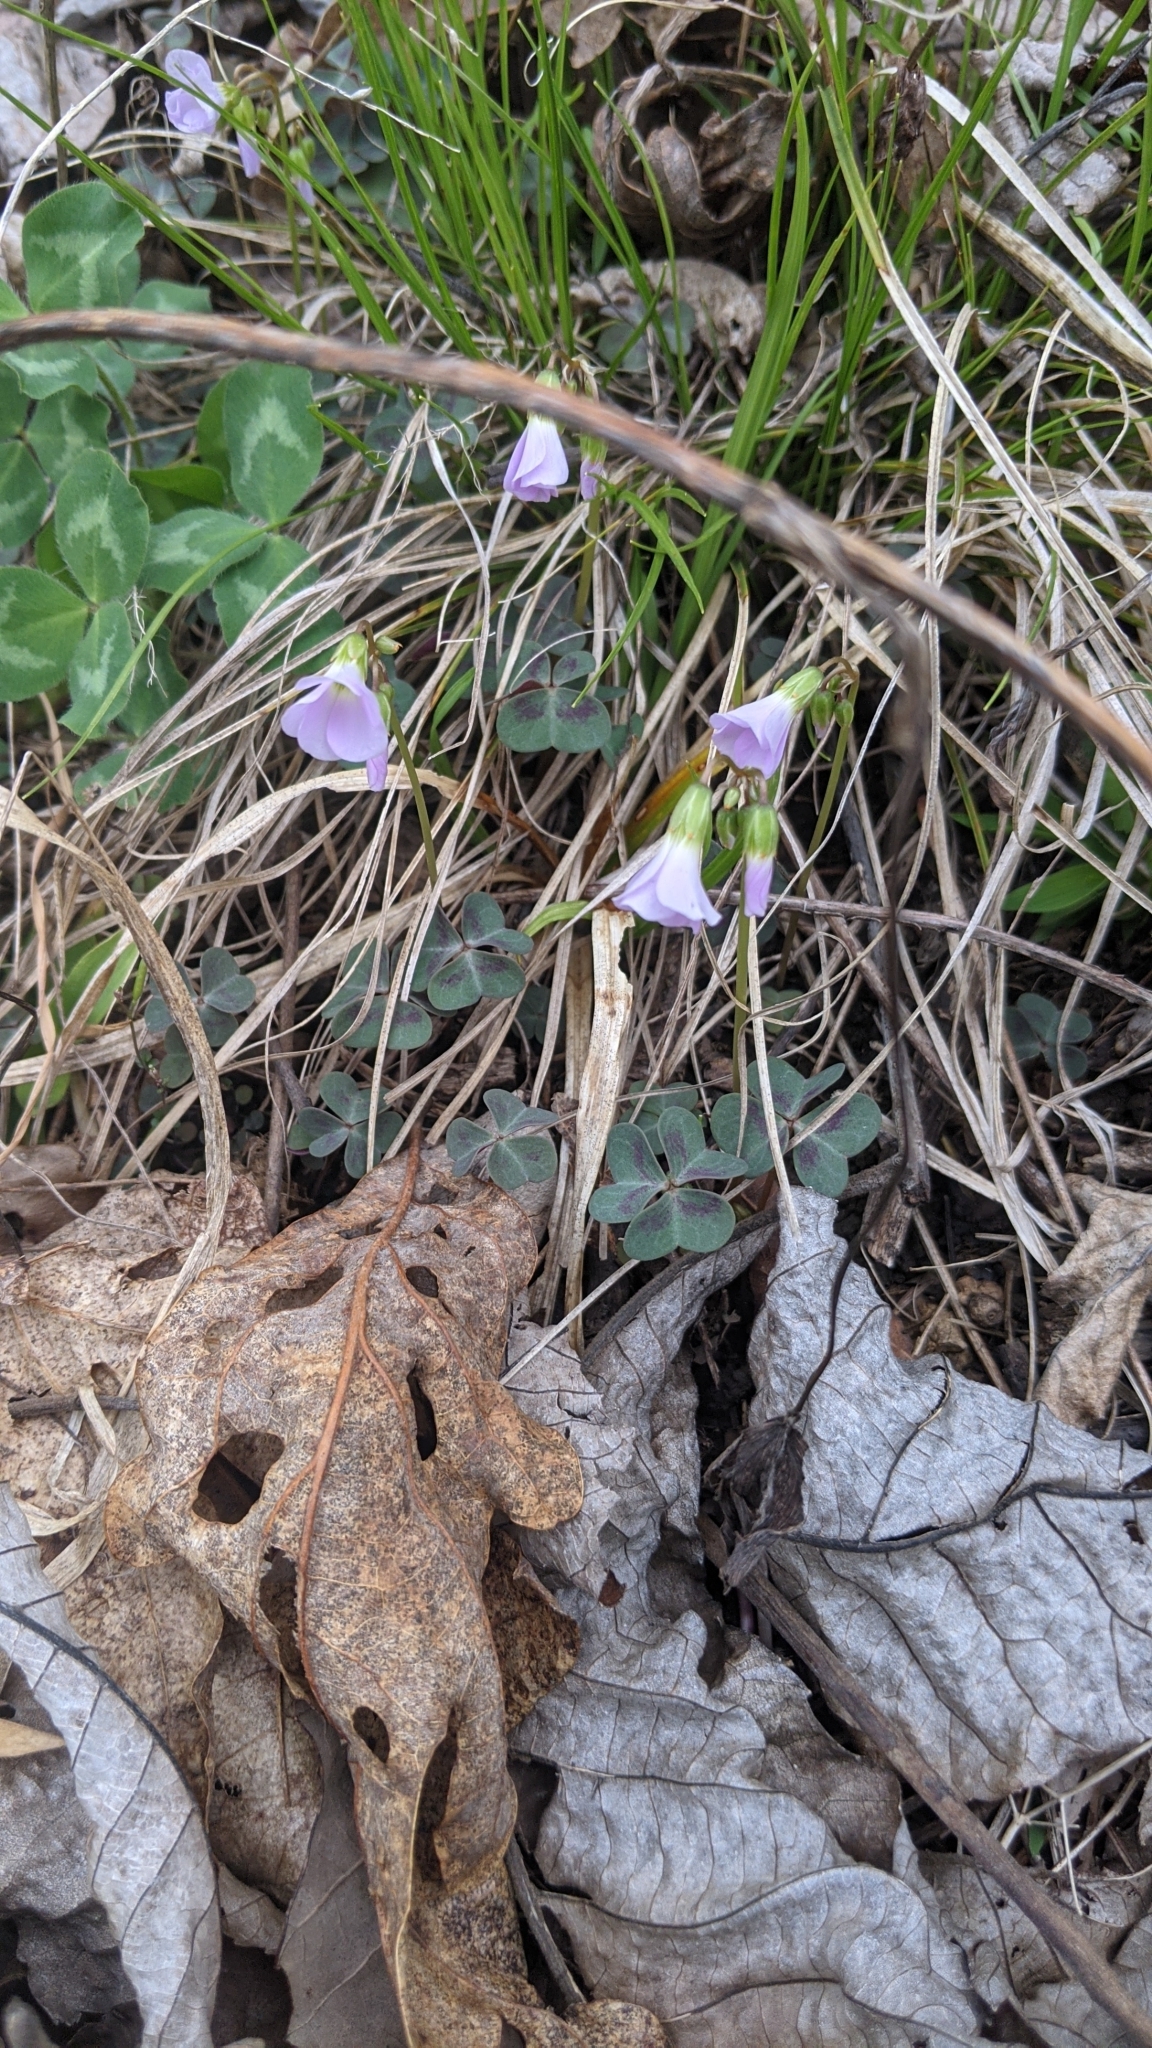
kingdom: Plantae
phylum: Tracheophyta
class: Magnoliopsida
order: Oxalidales
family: Oxalidaceae
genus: Oxalis
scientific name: Oxalis violacea
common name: Violet wood-sorrel
